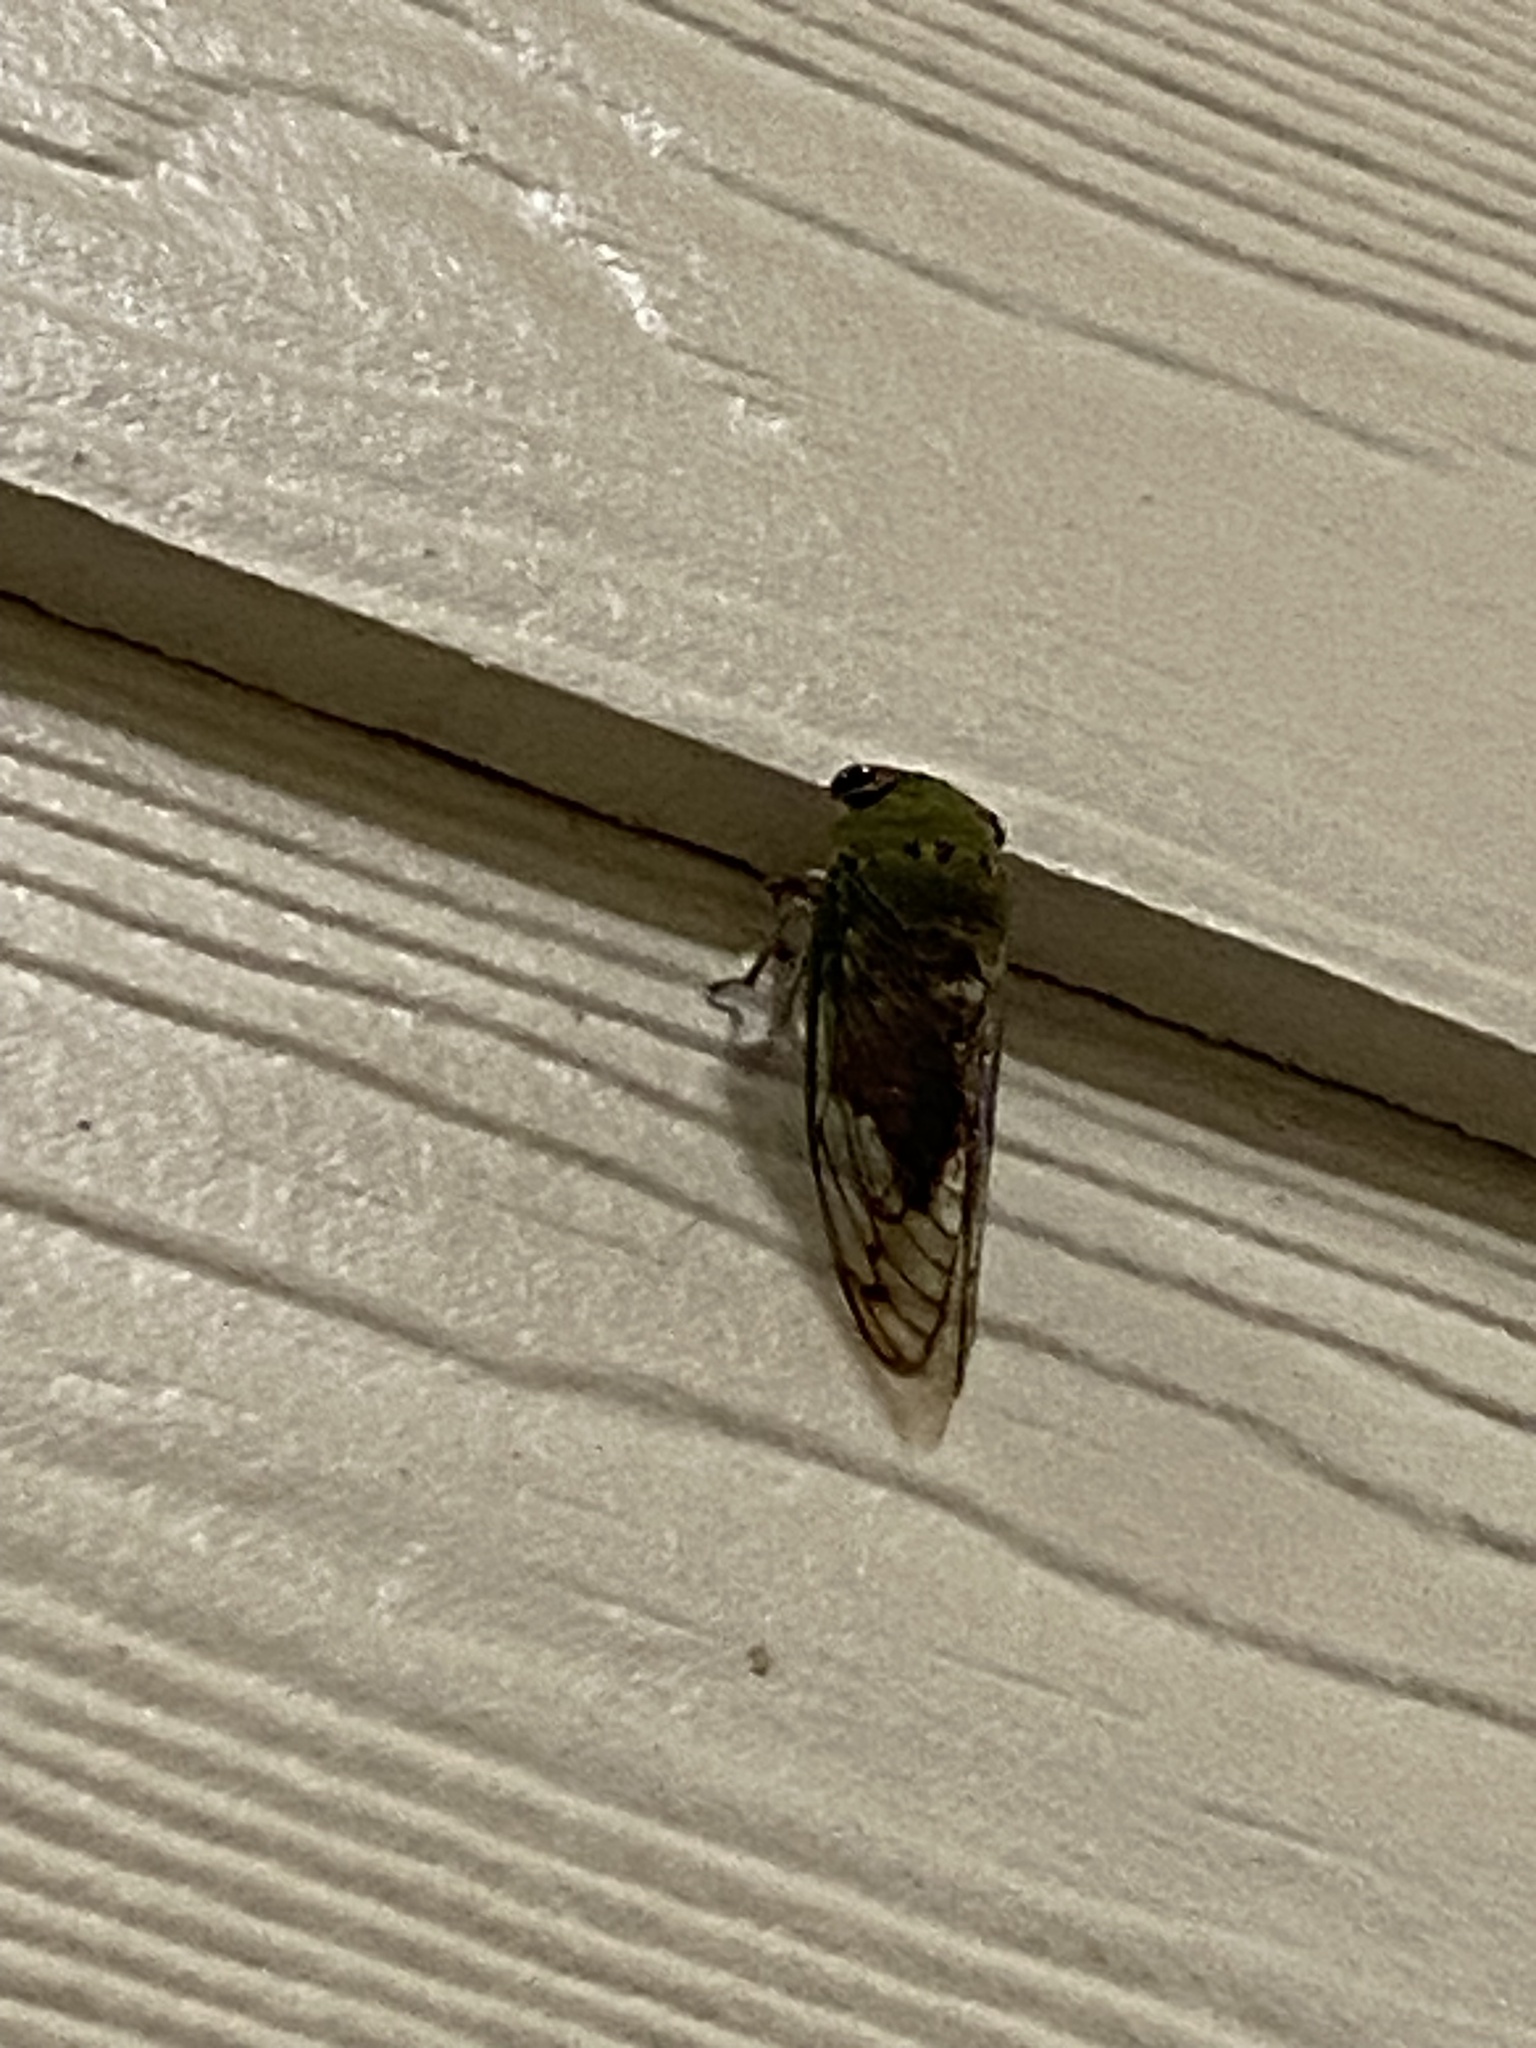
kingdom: Animalia
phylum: Arthropoda
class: Insecta
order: Hemiptera
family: Cicadidae
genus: Neotibicen
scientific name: Neotibicen superbus
